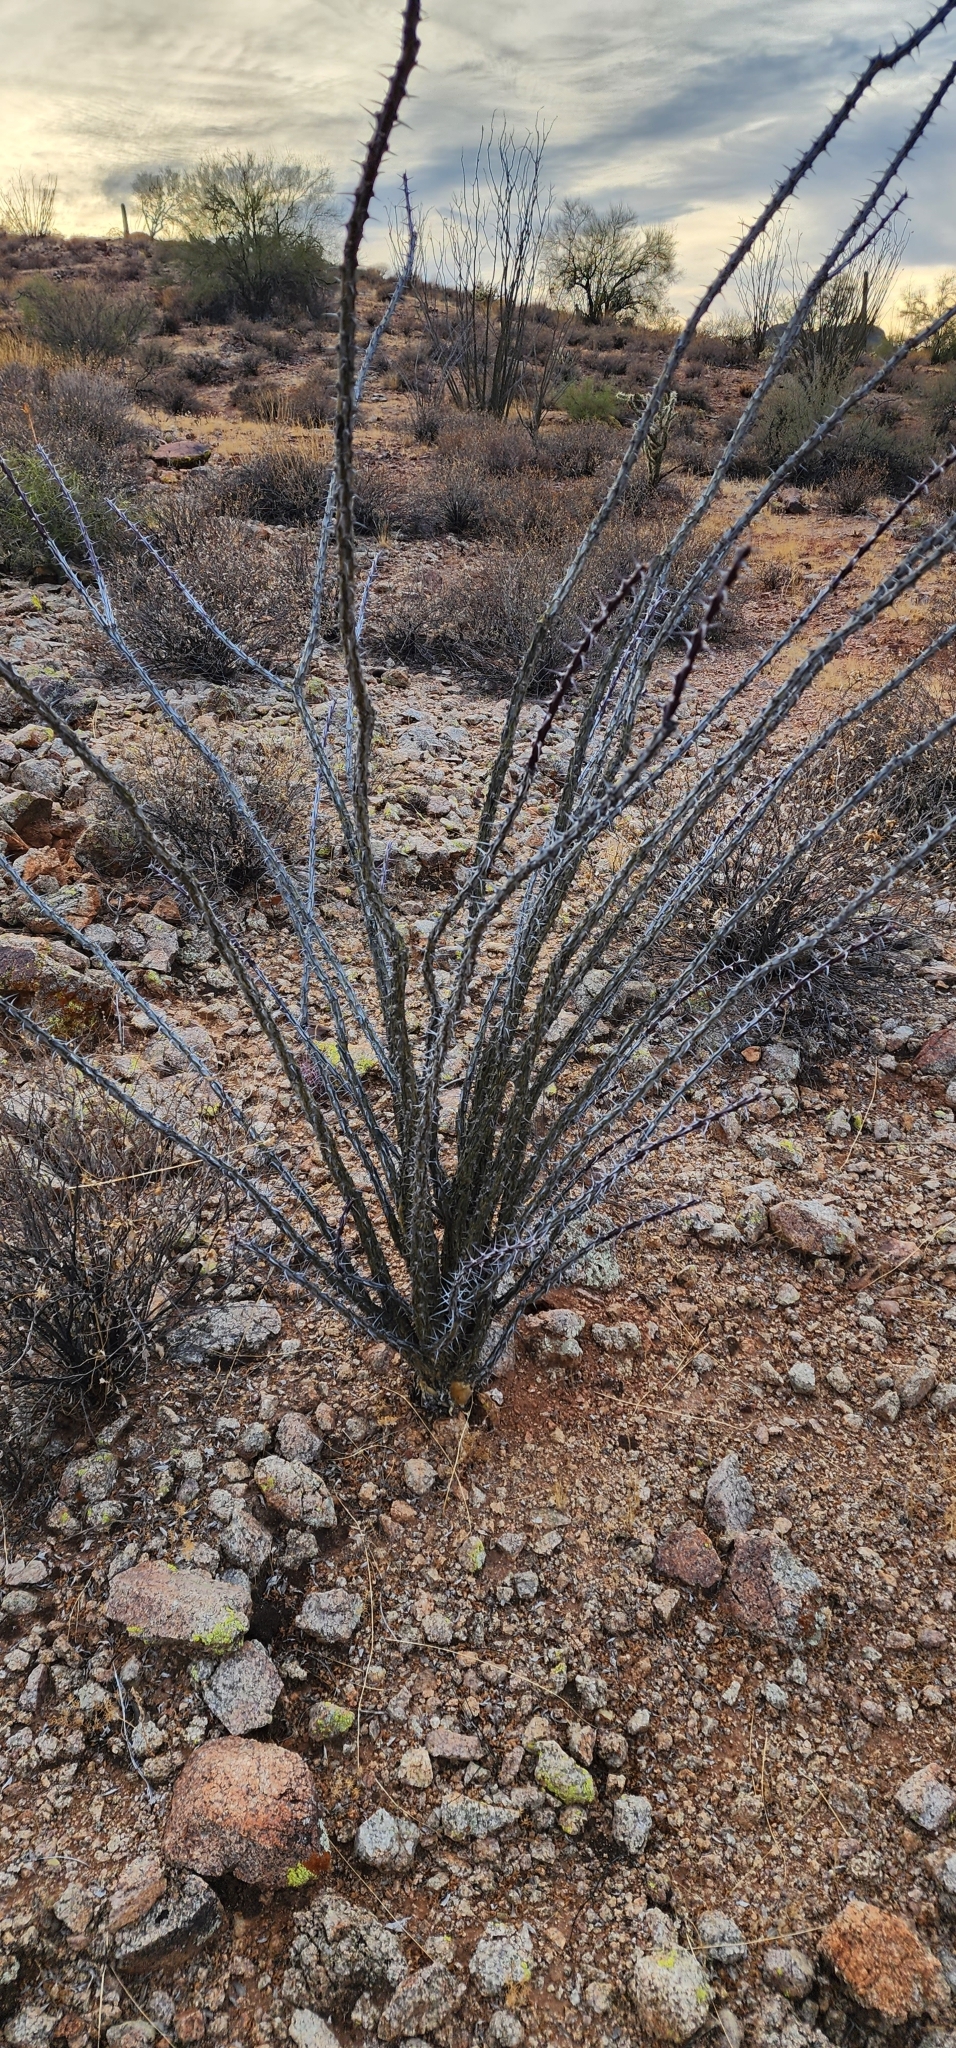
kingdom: Plantae
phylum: Tracheophyta
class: Magnoliopsida
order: Ericales
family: Fouquieriaceae
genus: Fouquieria
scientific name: Fouquieria splendens
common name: Vine-cactus
